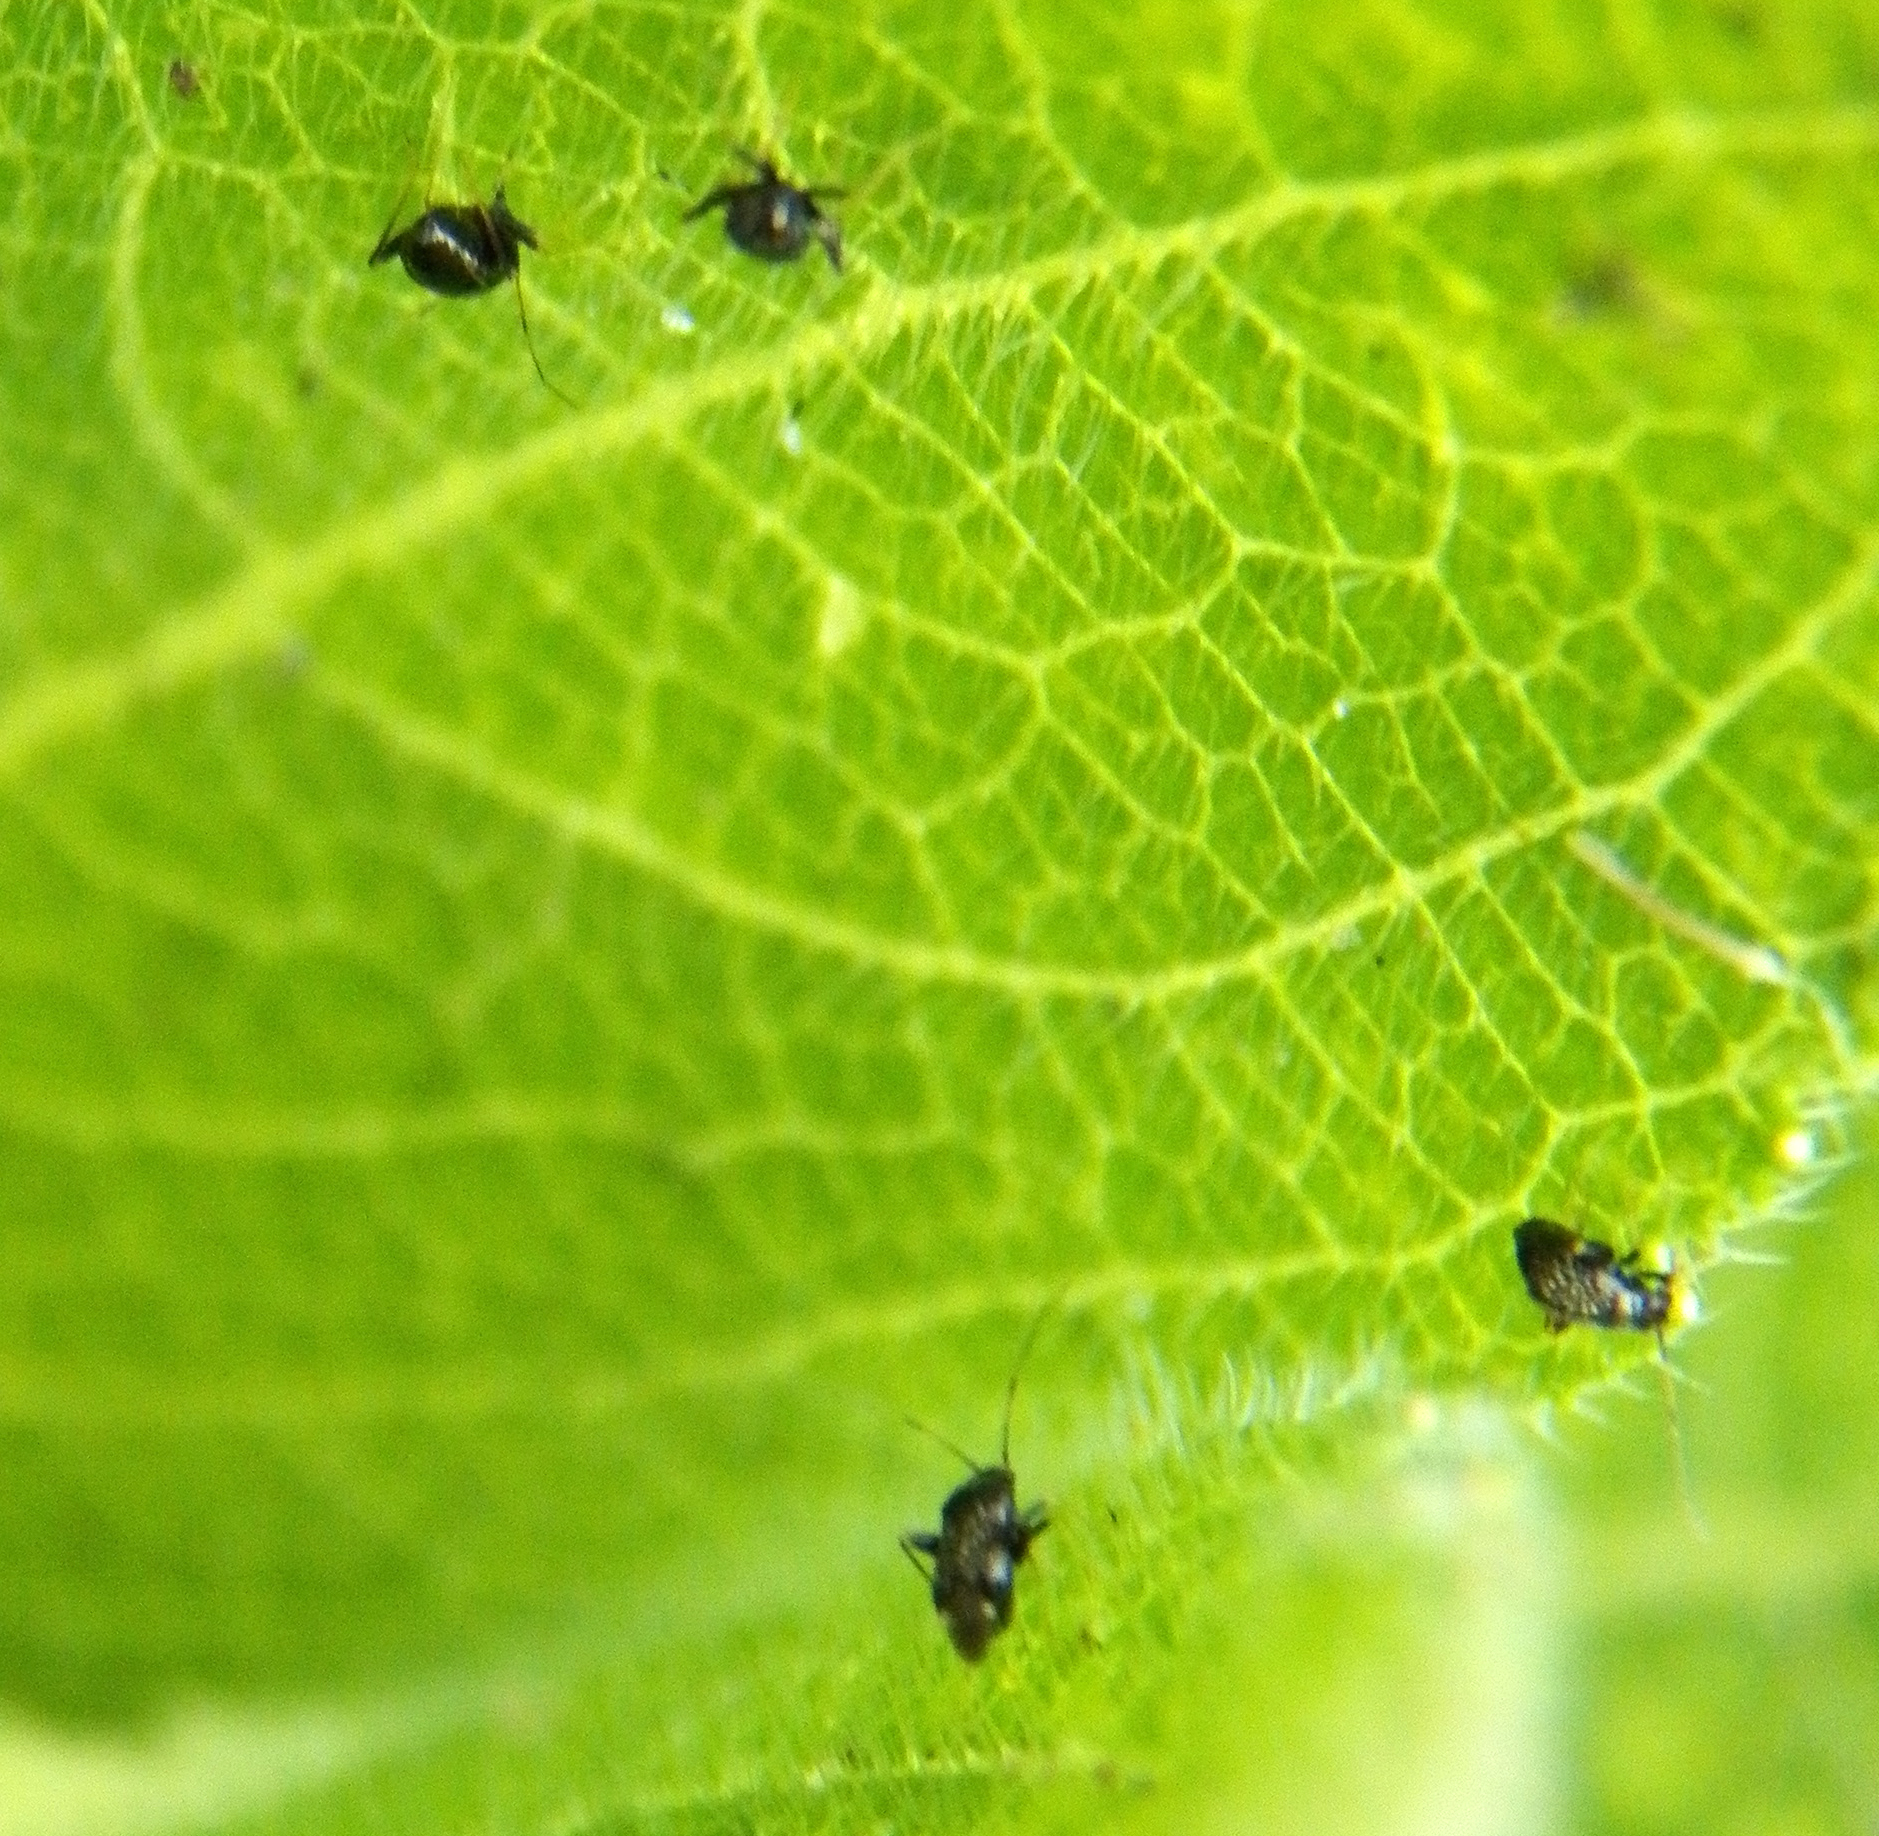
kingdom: Animalia
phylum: Arthropoda
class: Insecta
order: Hemiptera
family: Miridae
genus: Microtechnites
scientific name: Microtechnites bractatus
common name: Garden fleahopper
